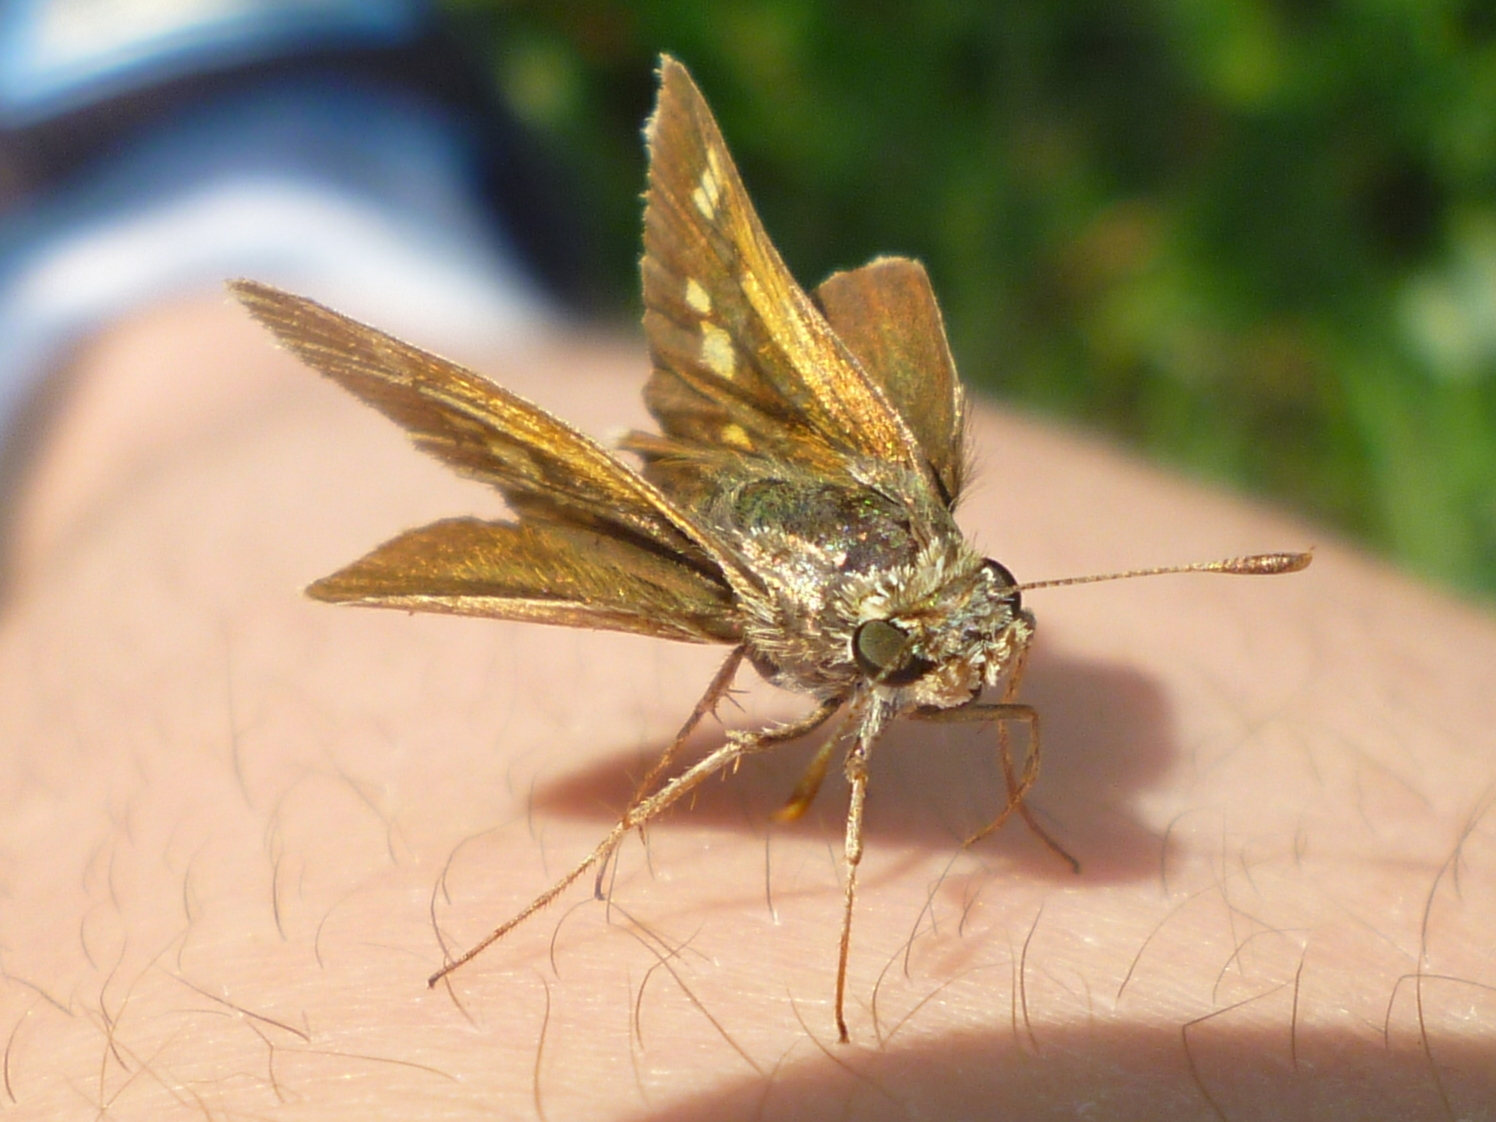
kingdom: Animalia
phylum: Arthropoda
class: Insecta
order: Lepidoptera
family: Hesperiidae
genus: Polites
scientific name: Polites coras
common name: Peck's skipper
